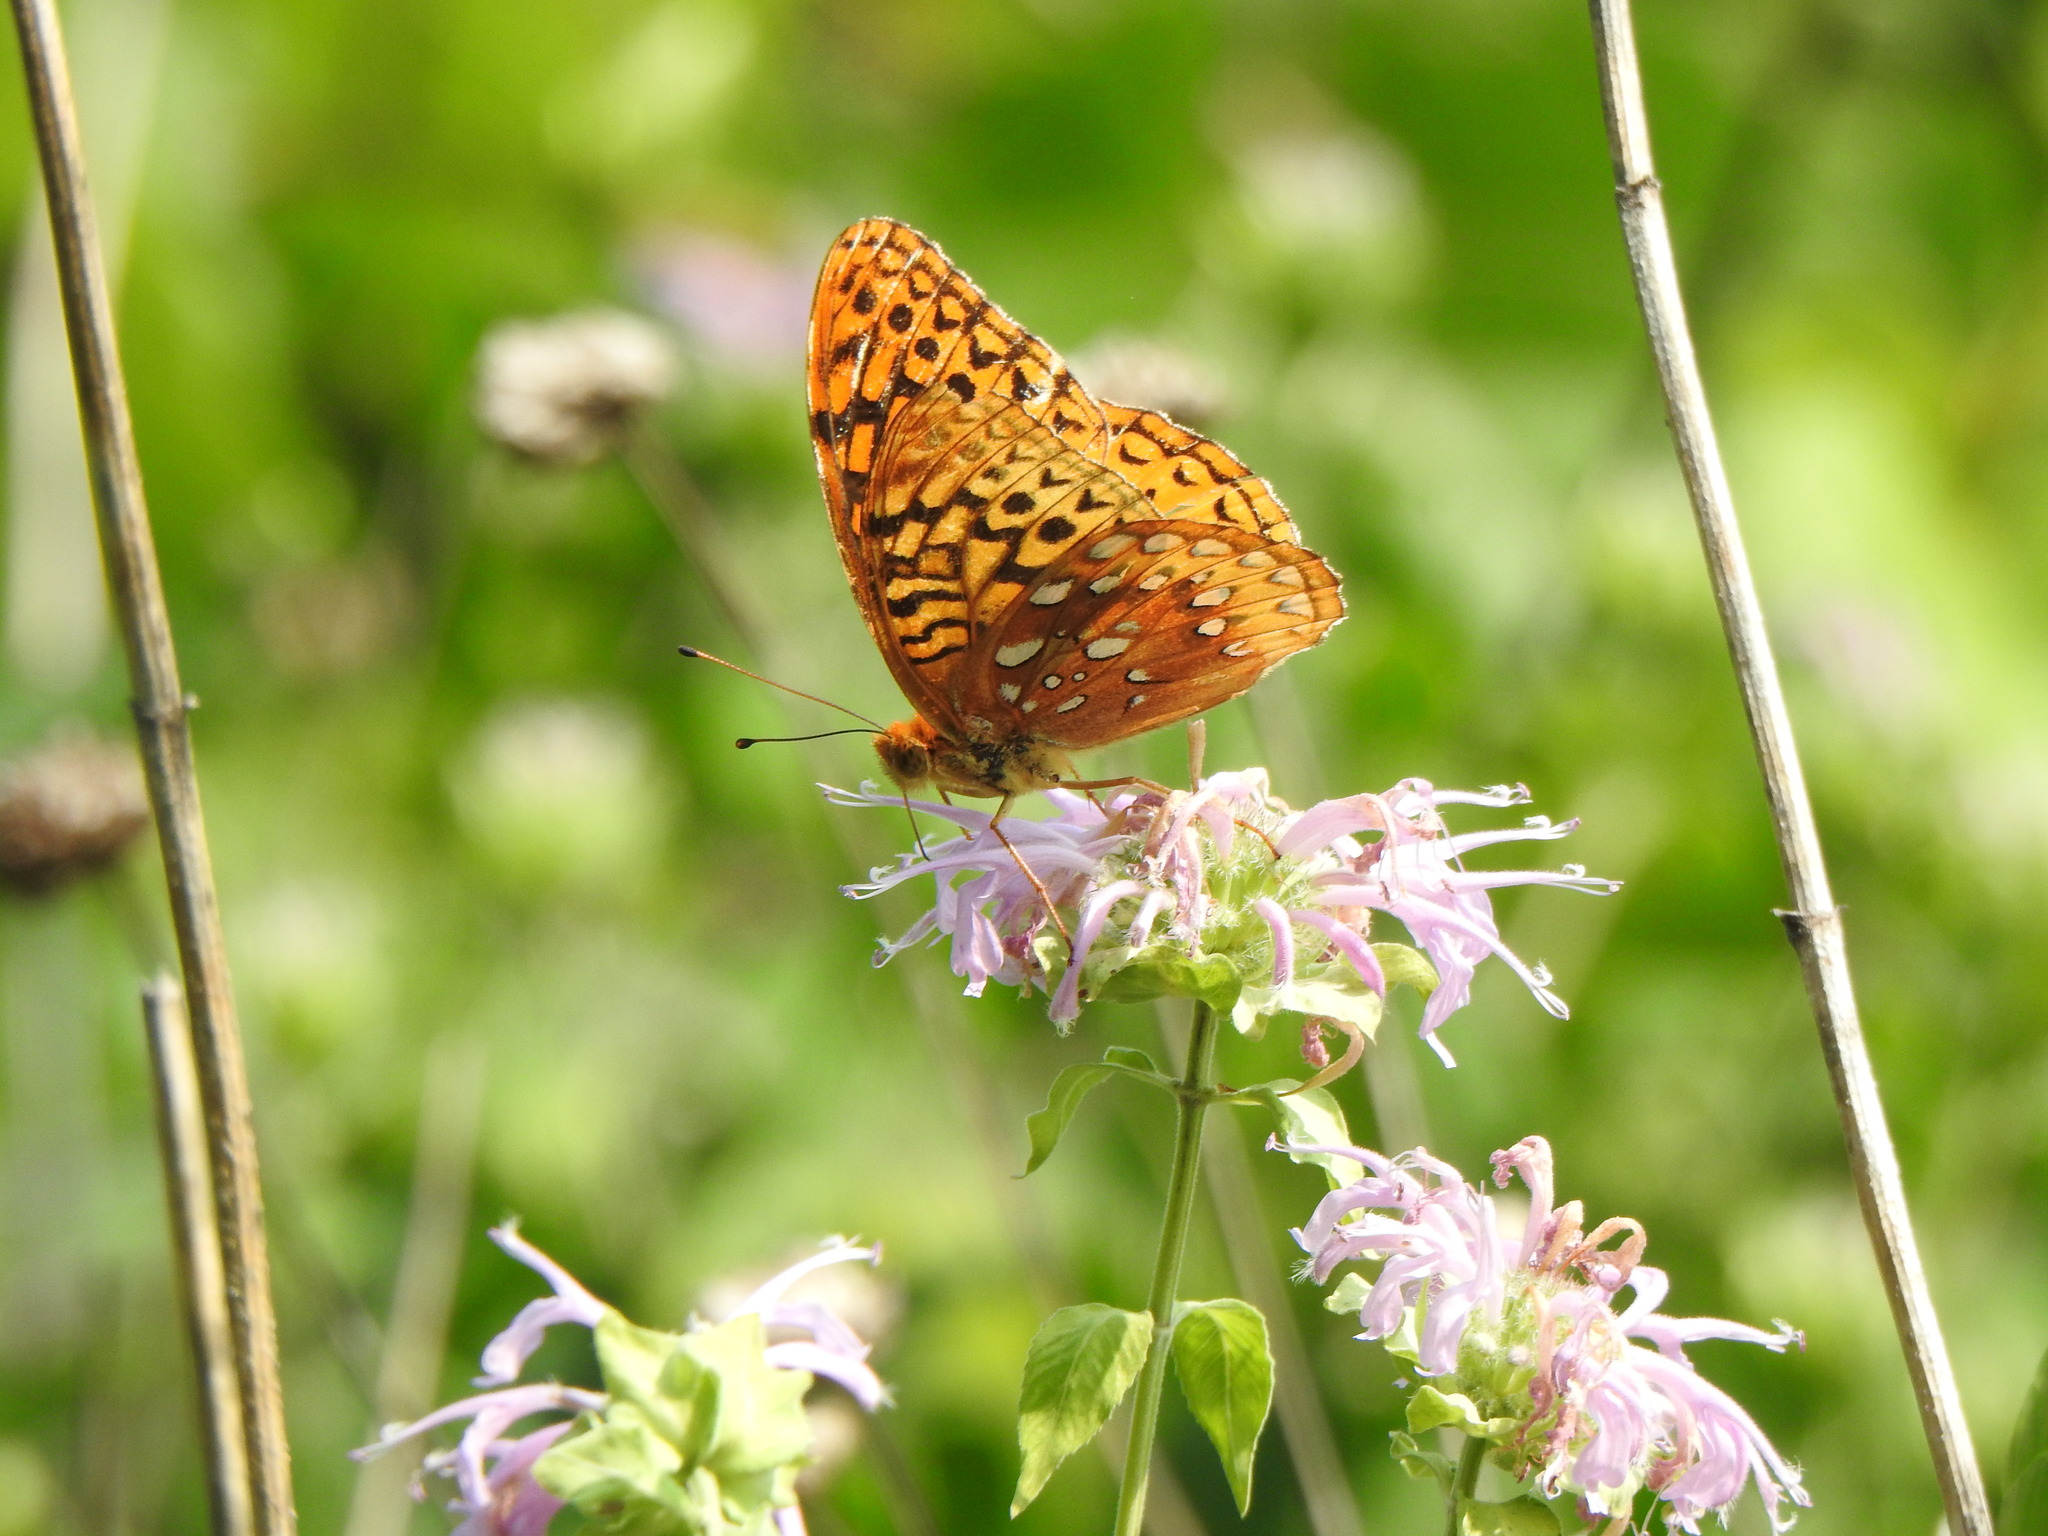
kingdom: Animalia
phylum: Arthropoda
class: Insecta
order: Lepidoptera
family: Nymphalidae
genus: Speyeria
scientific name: Speyeria cybele
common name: Great spangled fritillary
